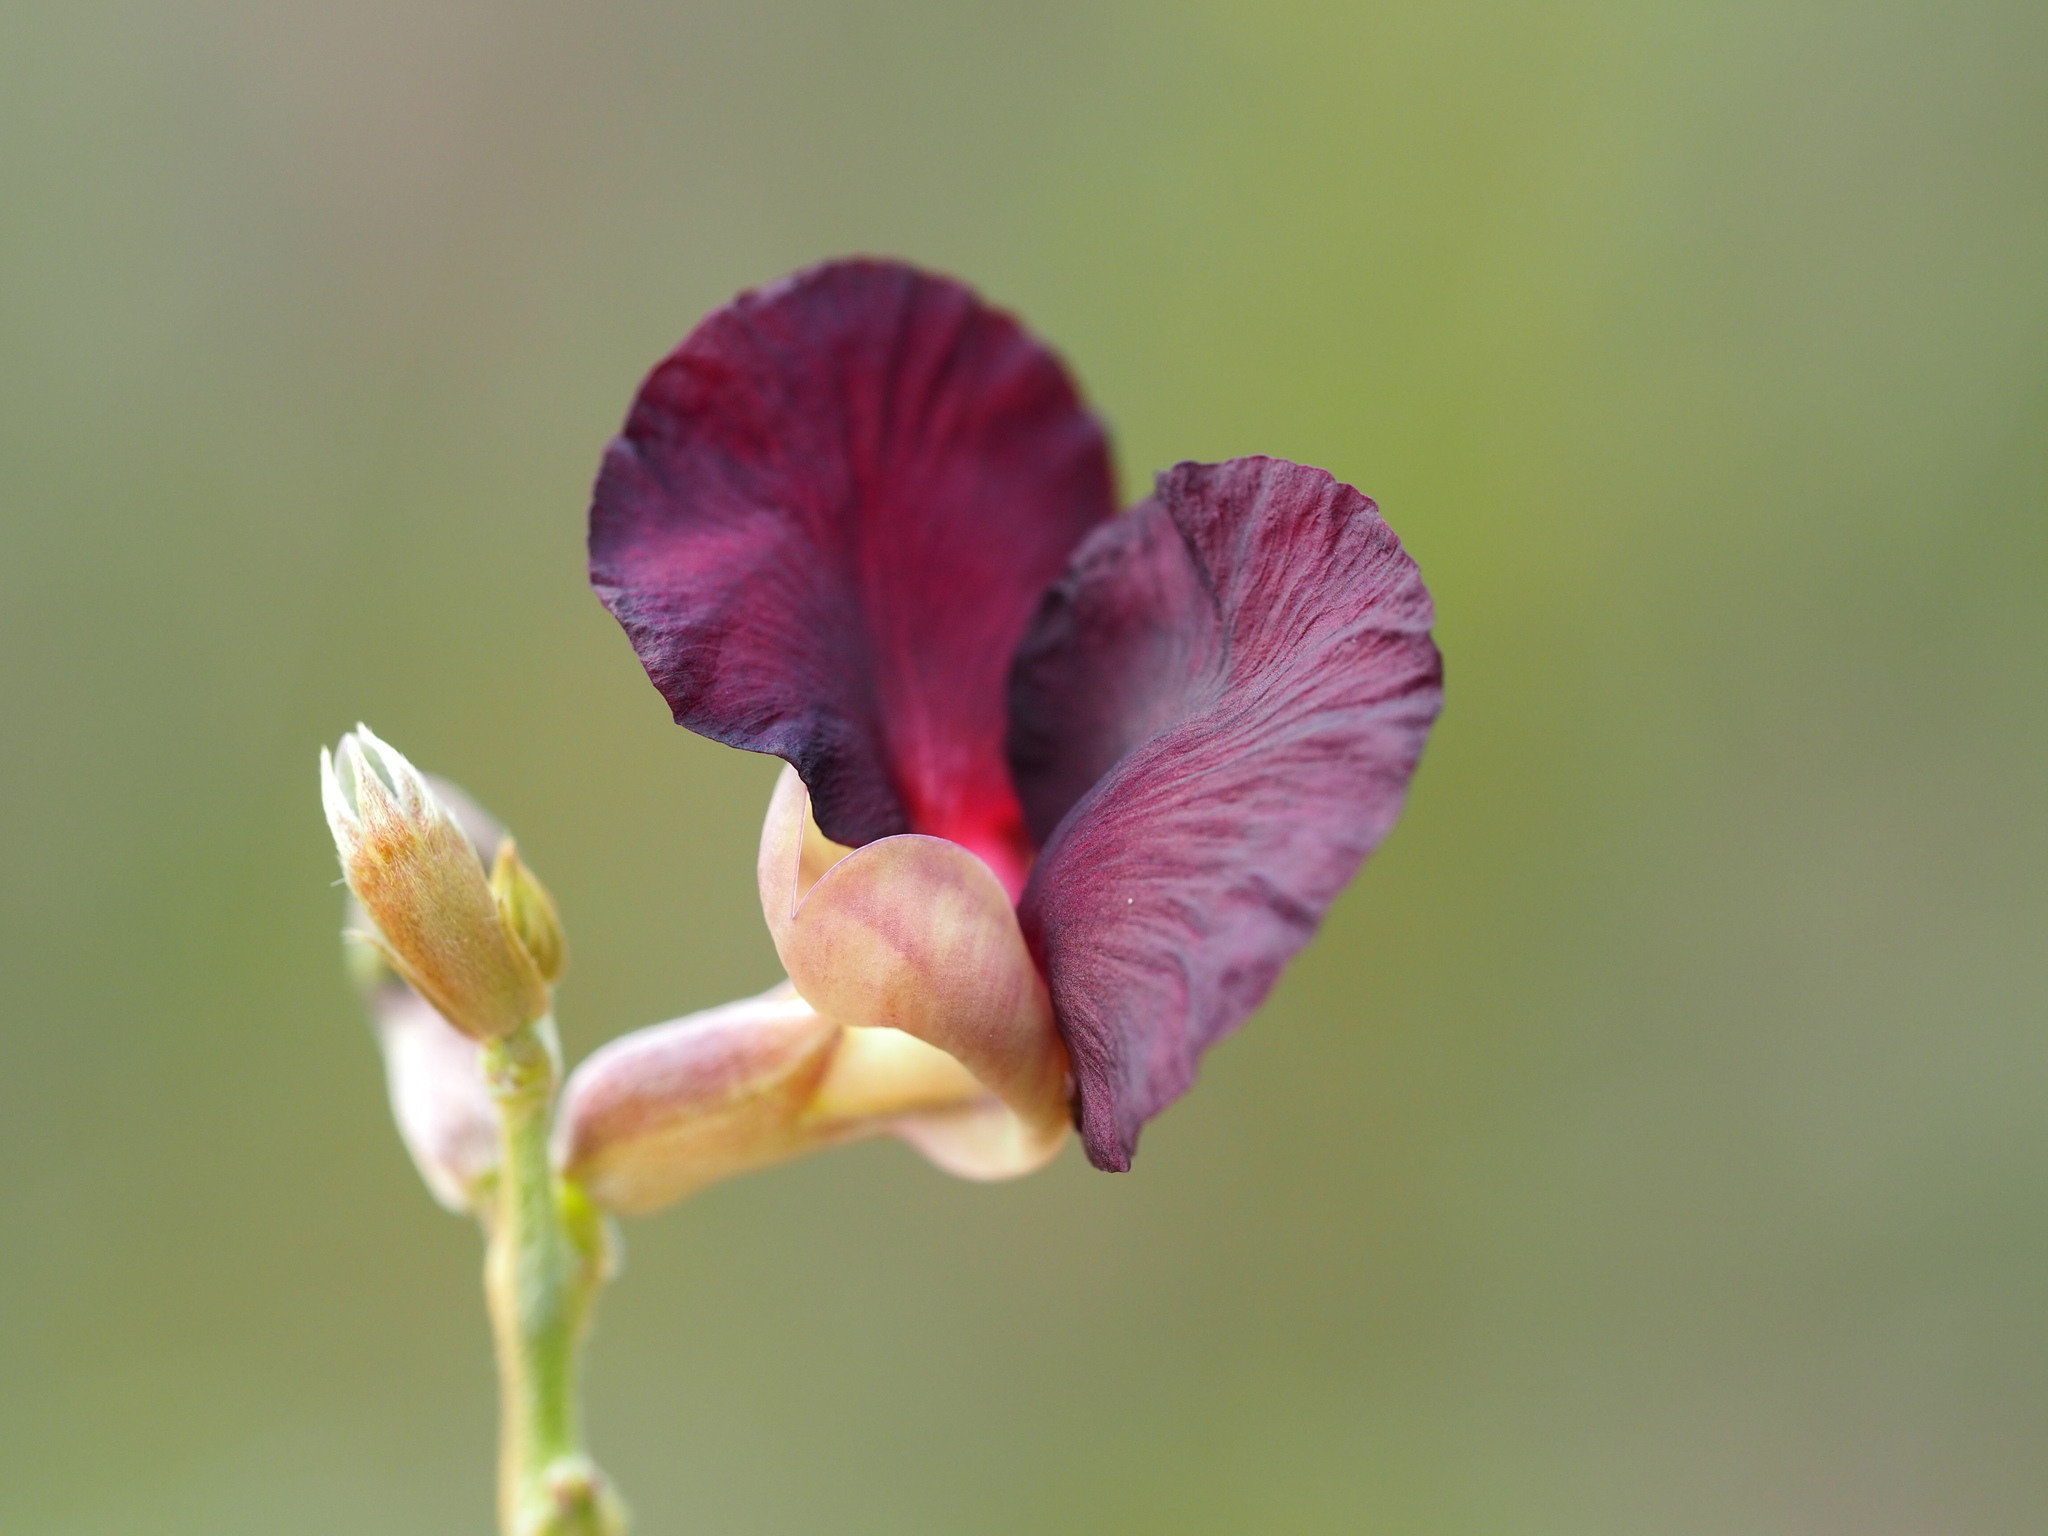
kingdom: Plantae
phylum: Tracheophyta
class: Magnoliopsida
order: Fabales
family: Fabaceae
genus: Macroptilium
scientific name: Macroptilium atropurpureum
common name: Purple bushbean
